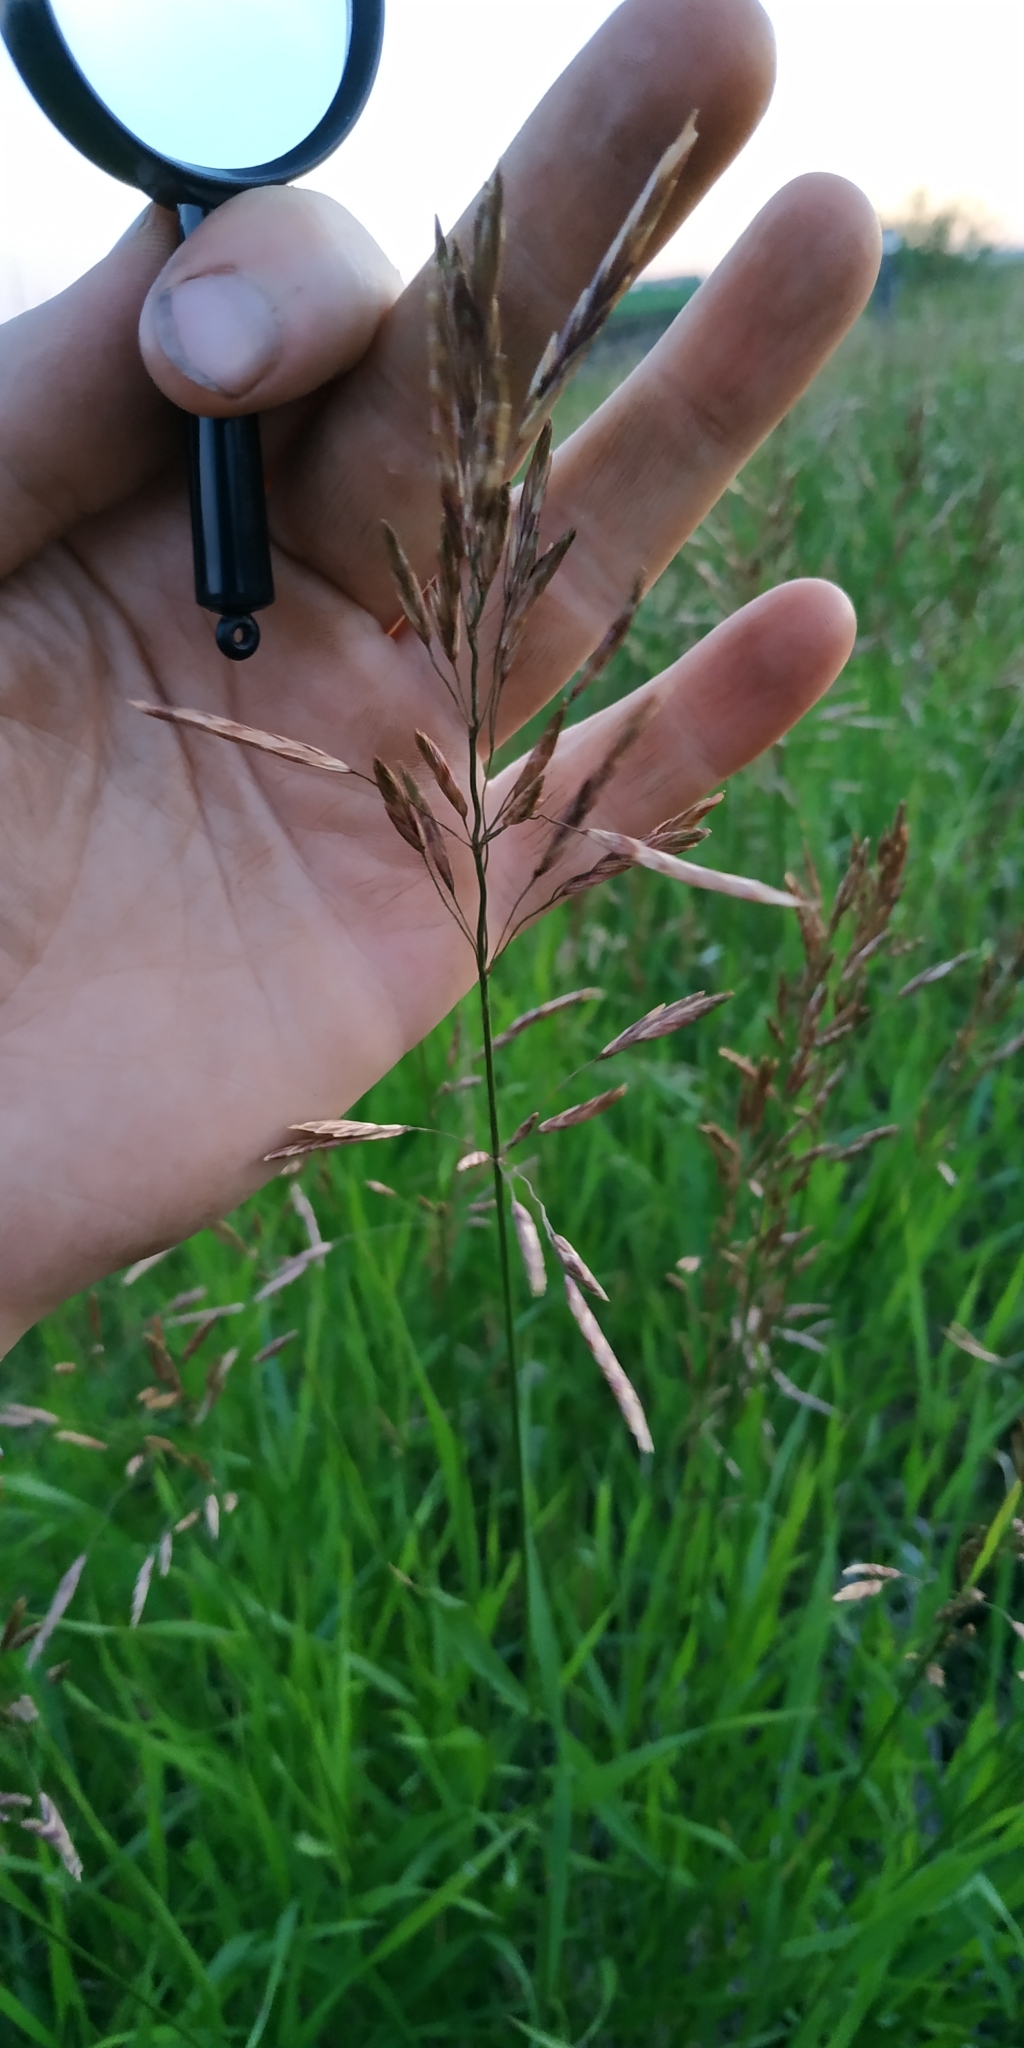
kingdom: Plantae
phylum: Tracheophyta
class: Liliopsida
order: Poales
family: Poaceae
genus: Bromus
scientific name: Bromus inermis
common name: Smooth brome
